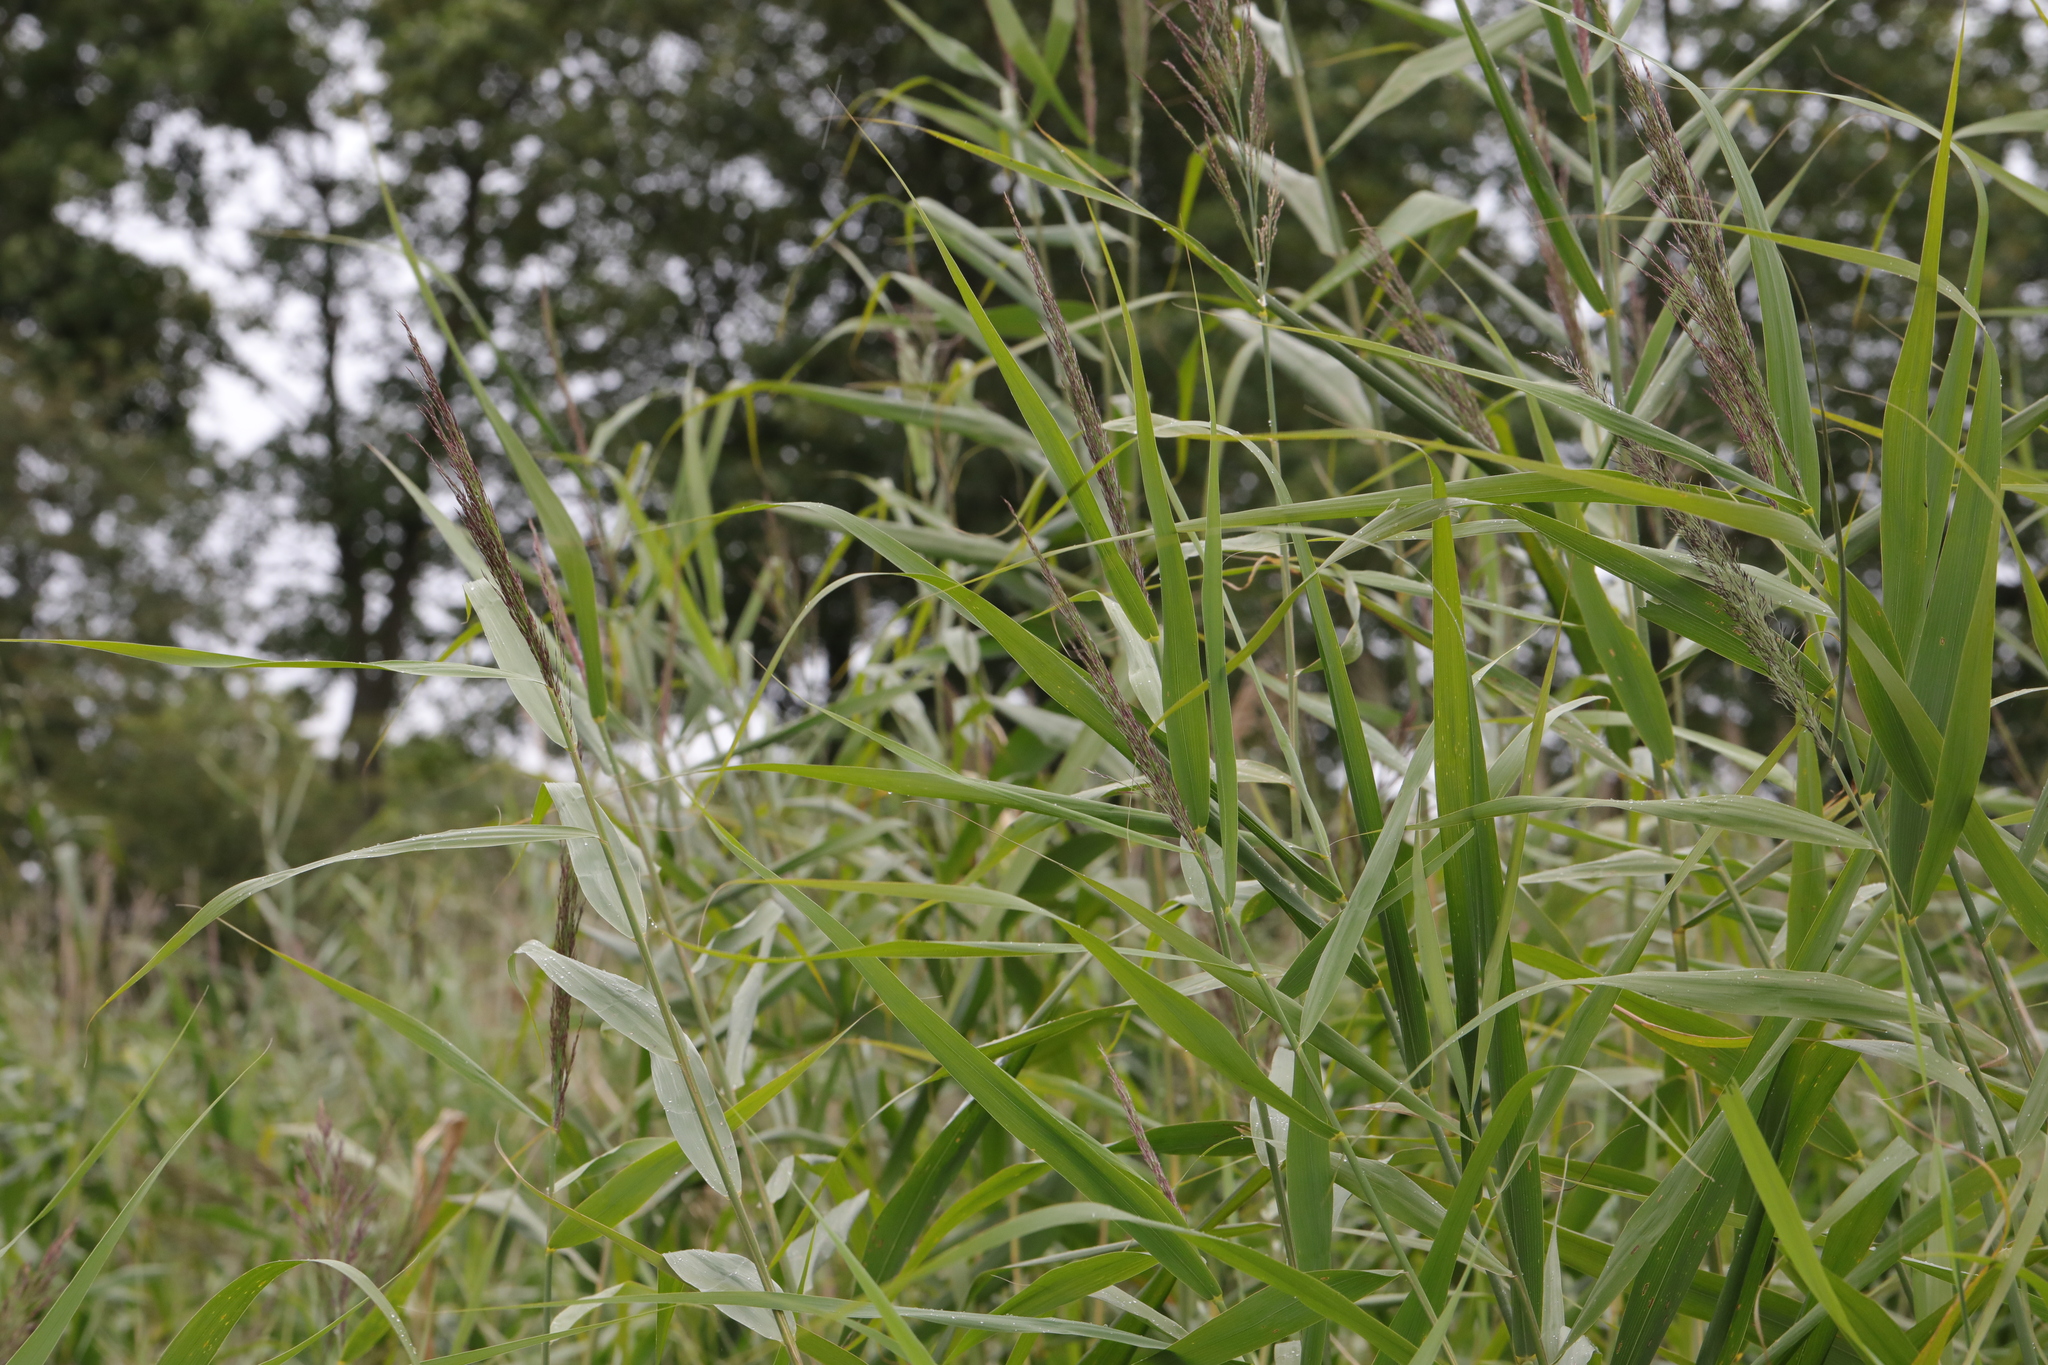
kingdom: Plantae
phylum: Tracheophyta
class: Liliopsida
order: Poales
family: Poaceae
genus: Phragmites
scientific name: Phragmites australis
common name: Common reed
